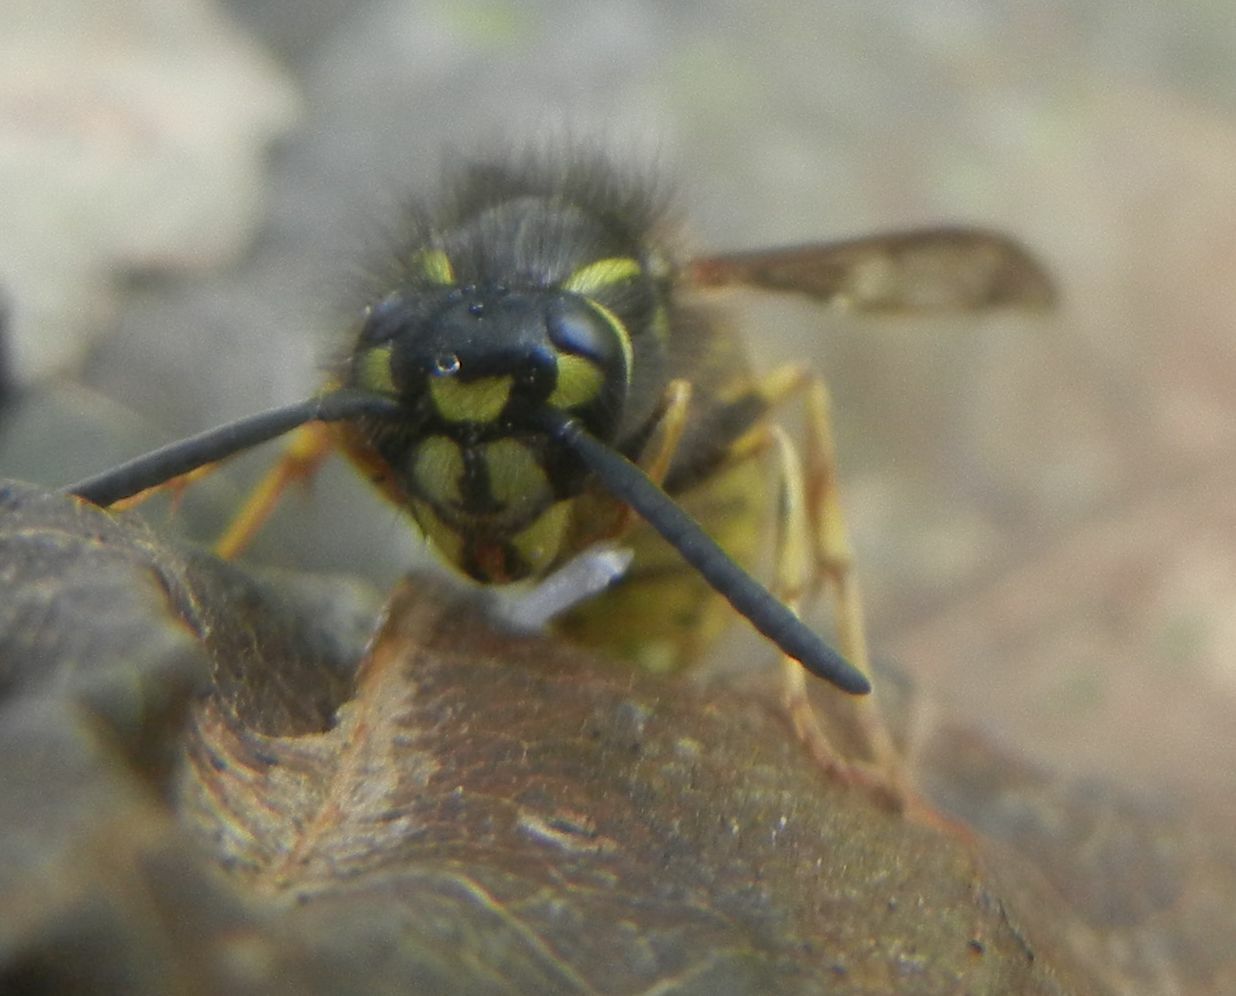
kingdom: Animalia
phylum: Arthropoda
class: Insecta
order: Hymenoptera
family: Vespidae
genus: Vespula
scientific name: Vespula vulgaris
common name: Common wasp
